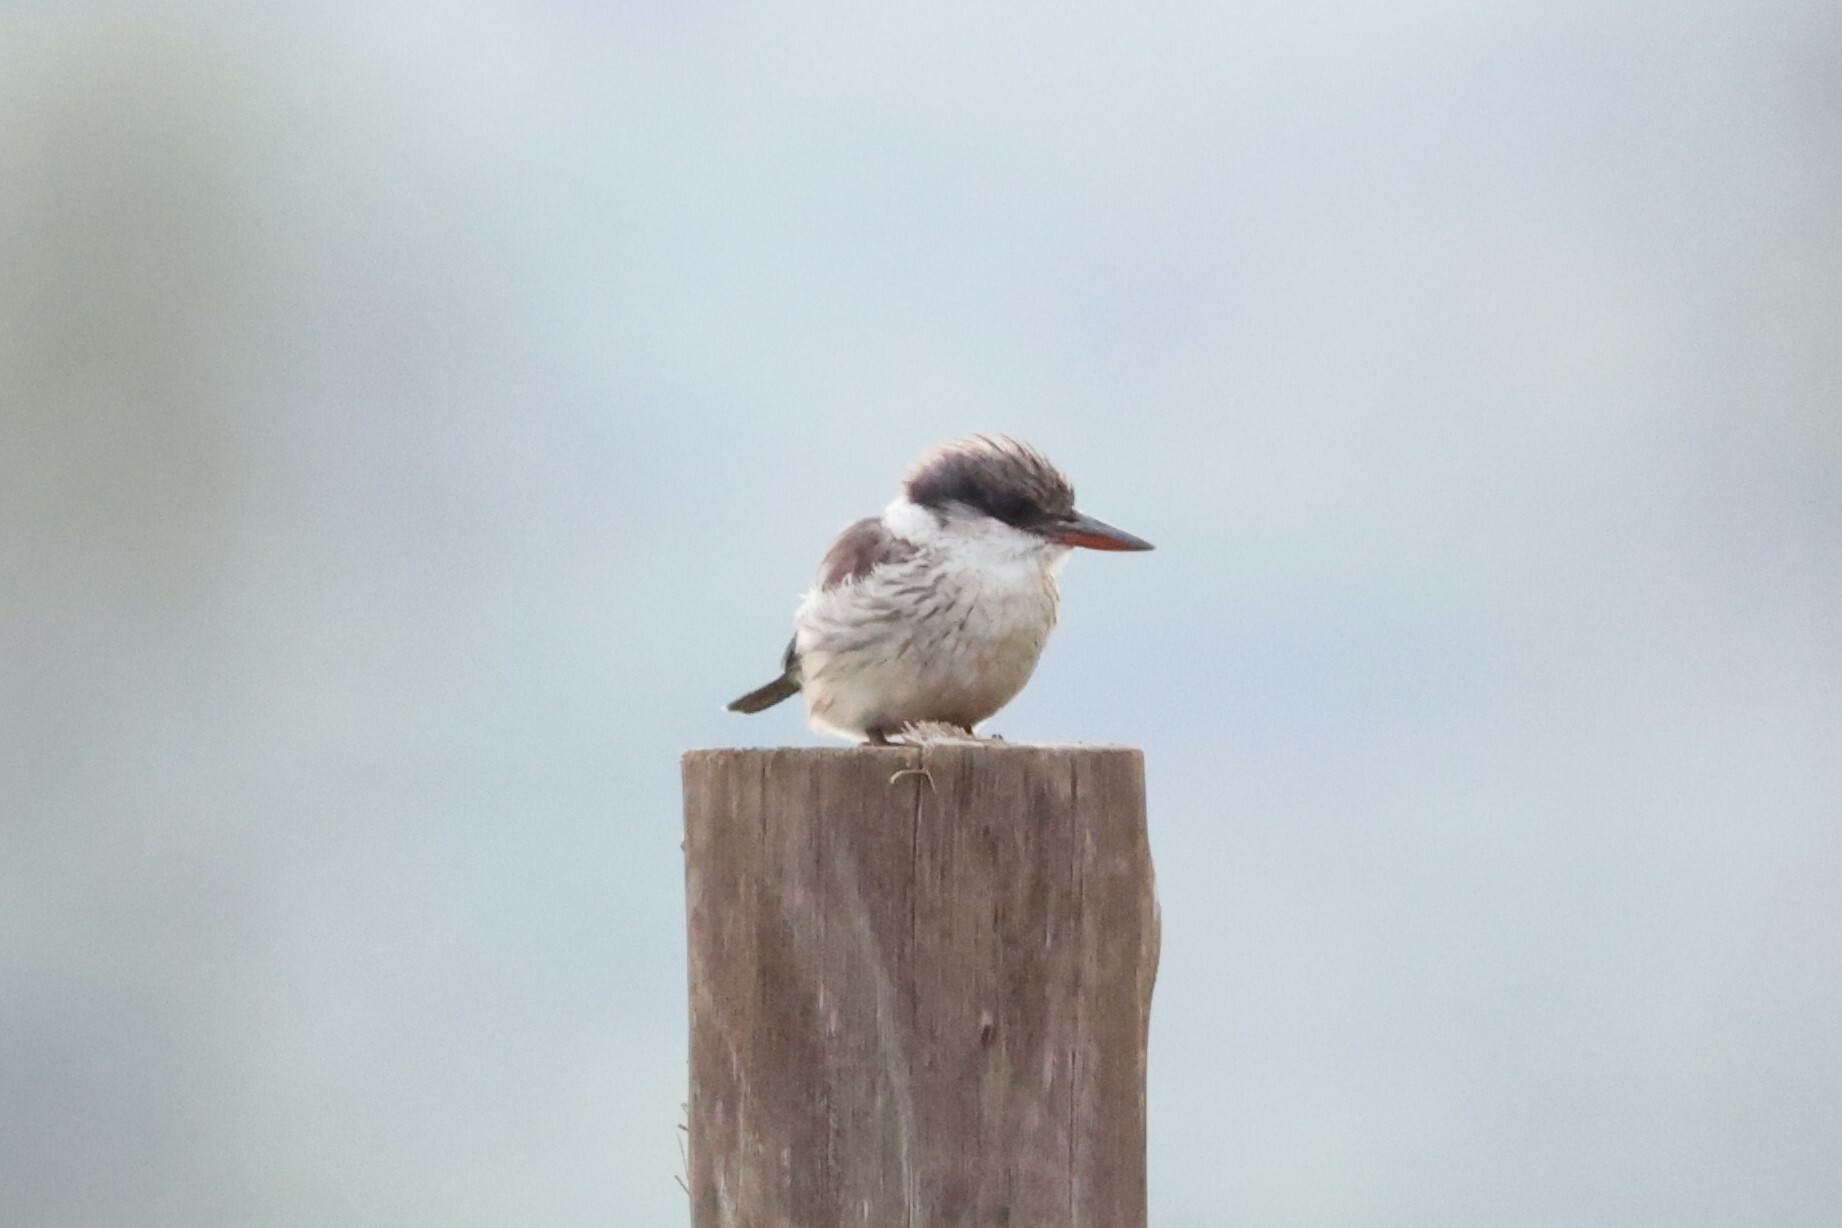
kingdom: Animalia
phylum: Chordata
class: Aves
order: Coraciiformes
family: Alcedinidae
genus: Halcyon
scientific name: Halcyon chelicuti
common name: Striped kingfisher
